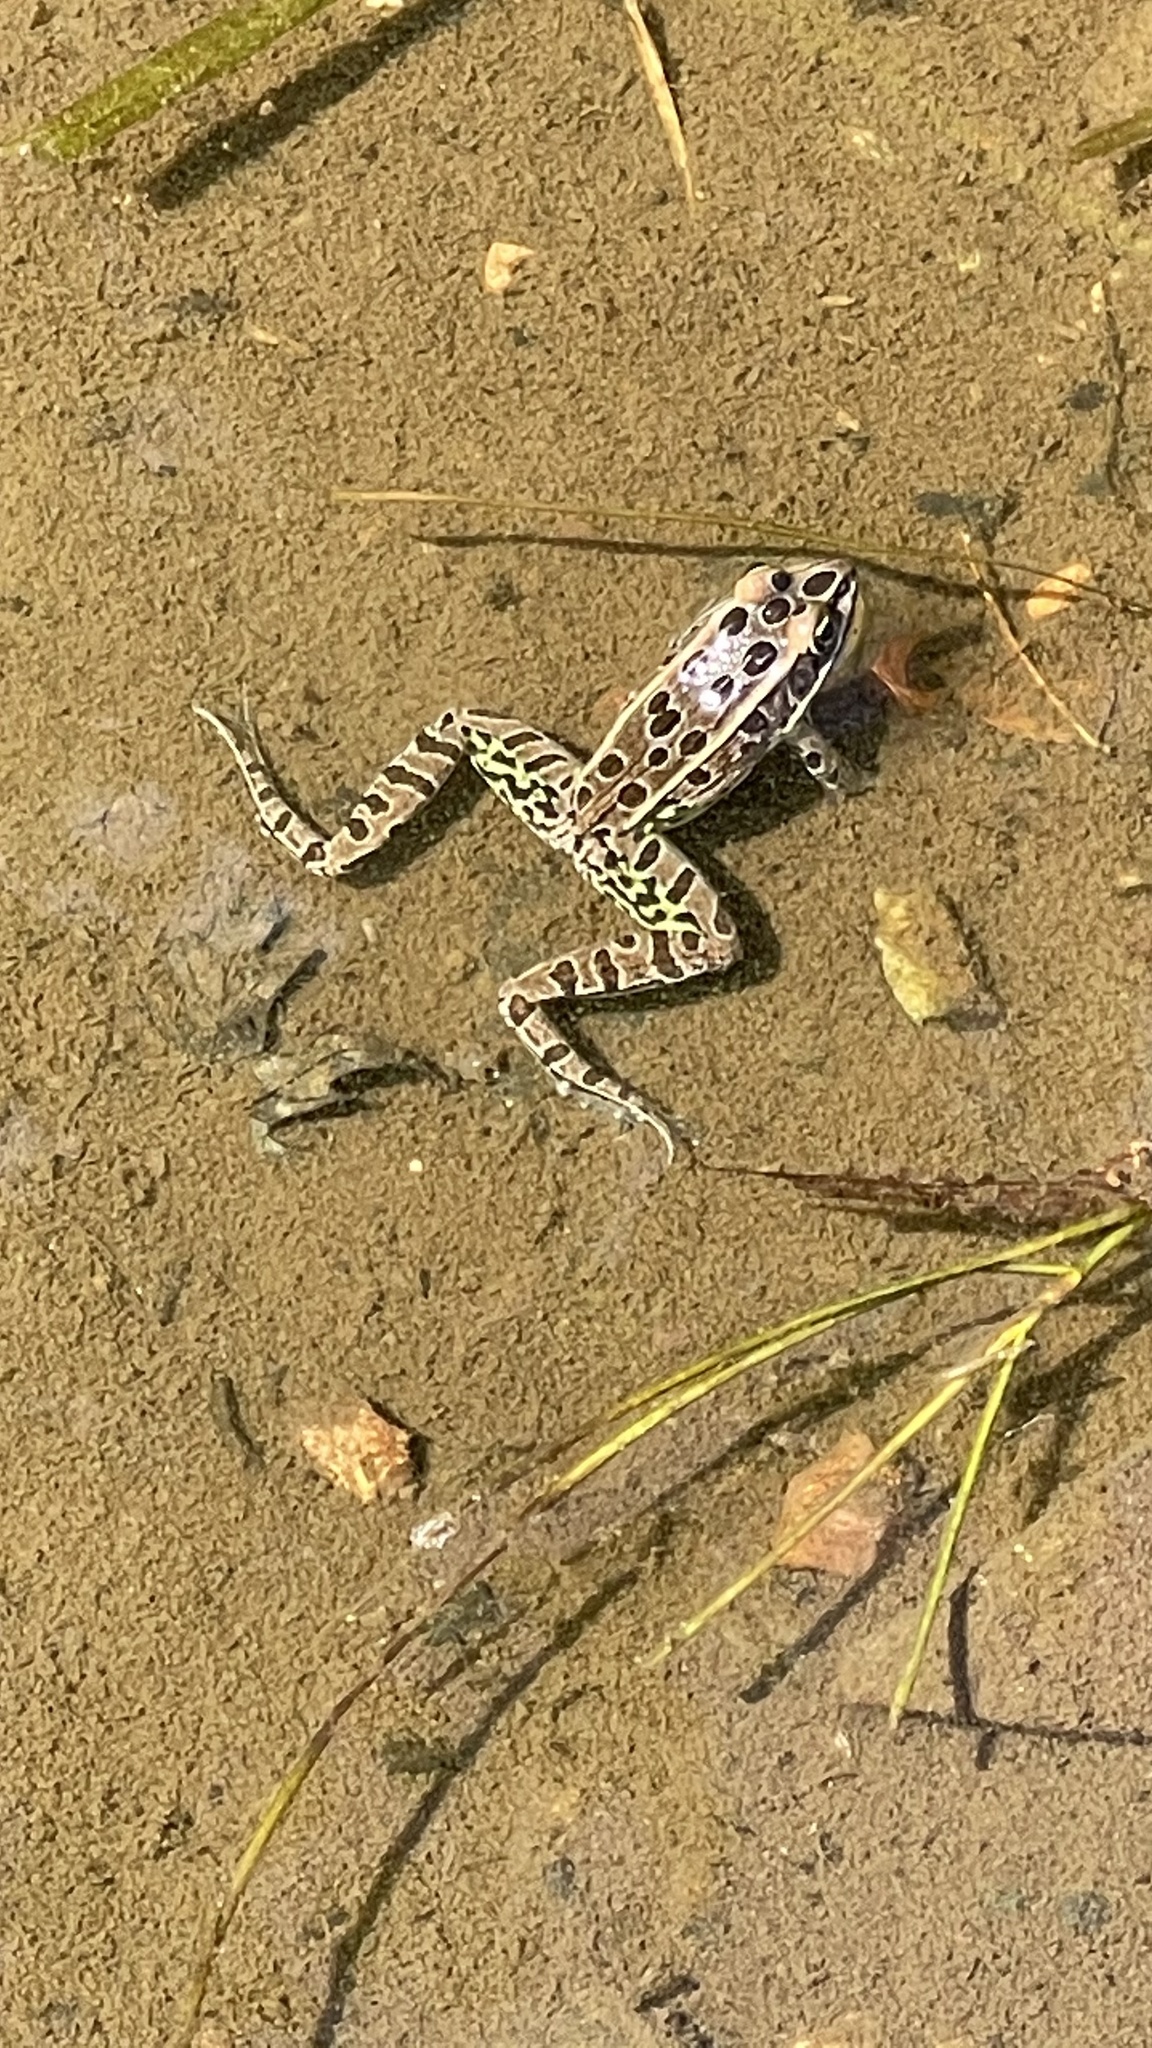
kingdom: Animalia
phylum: Chordata
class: Amphibia
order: Anura
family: Ranidae
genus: Lithobates
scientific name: Lithobates pipiens
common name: Northern leopard frog
